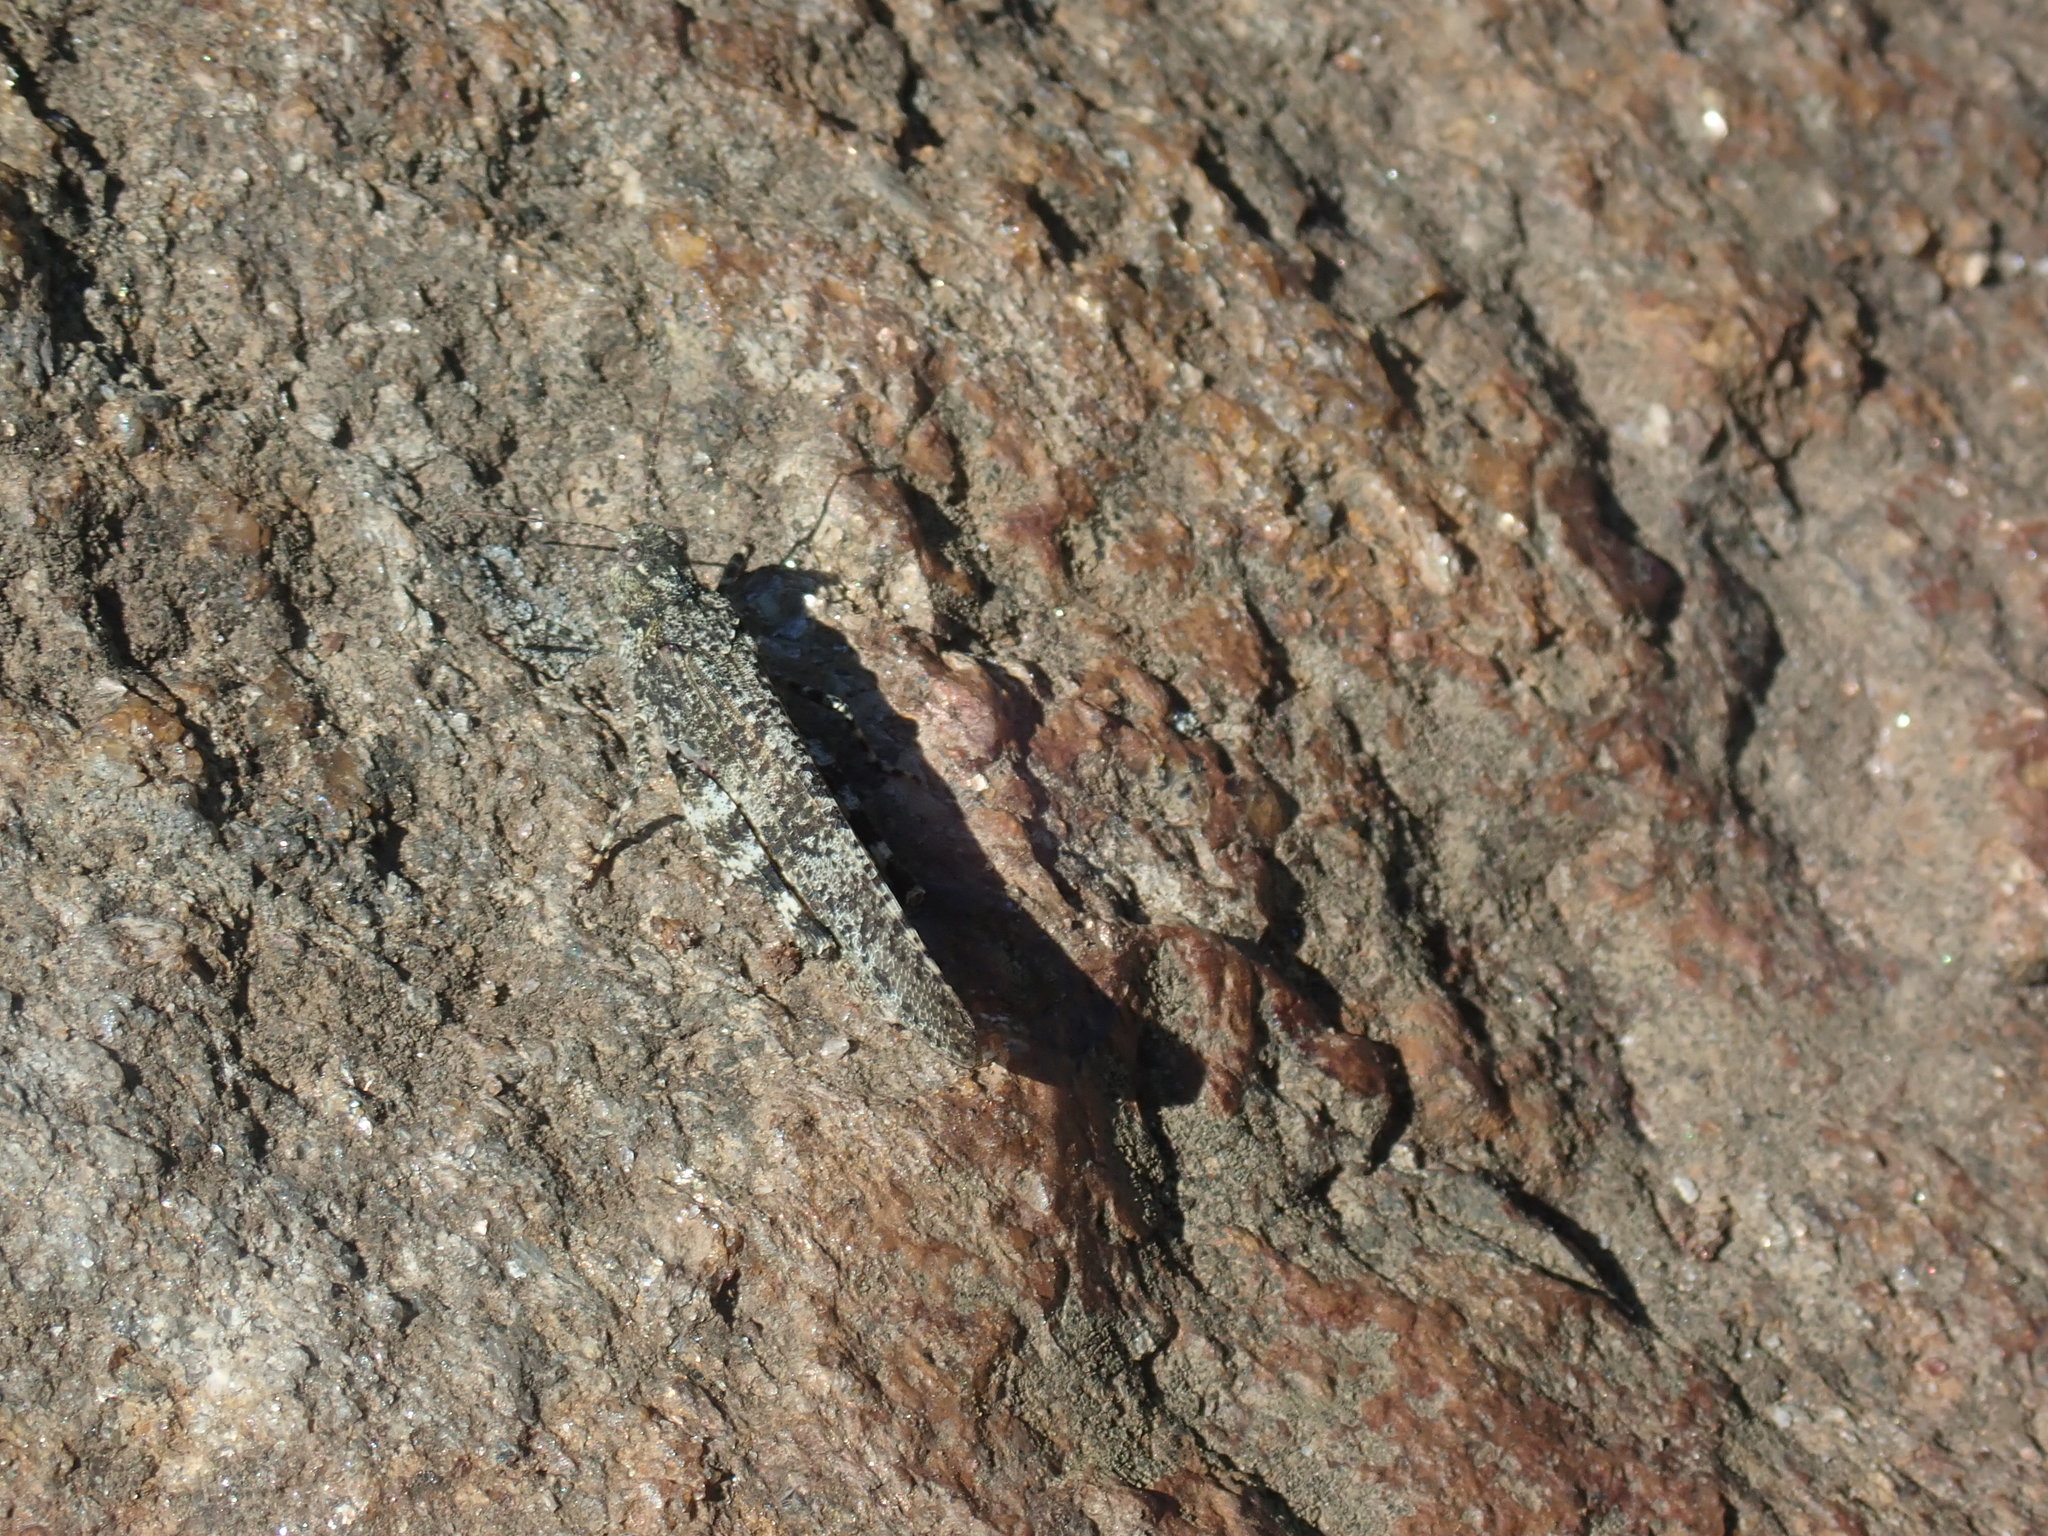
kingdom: Animalia
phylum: Arthropoda
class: Insecta
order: Orthoptera
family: Acrididae
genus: Trimerotropis
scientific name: Trimerotropis verruculata
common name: Crackling forest grasshopper
